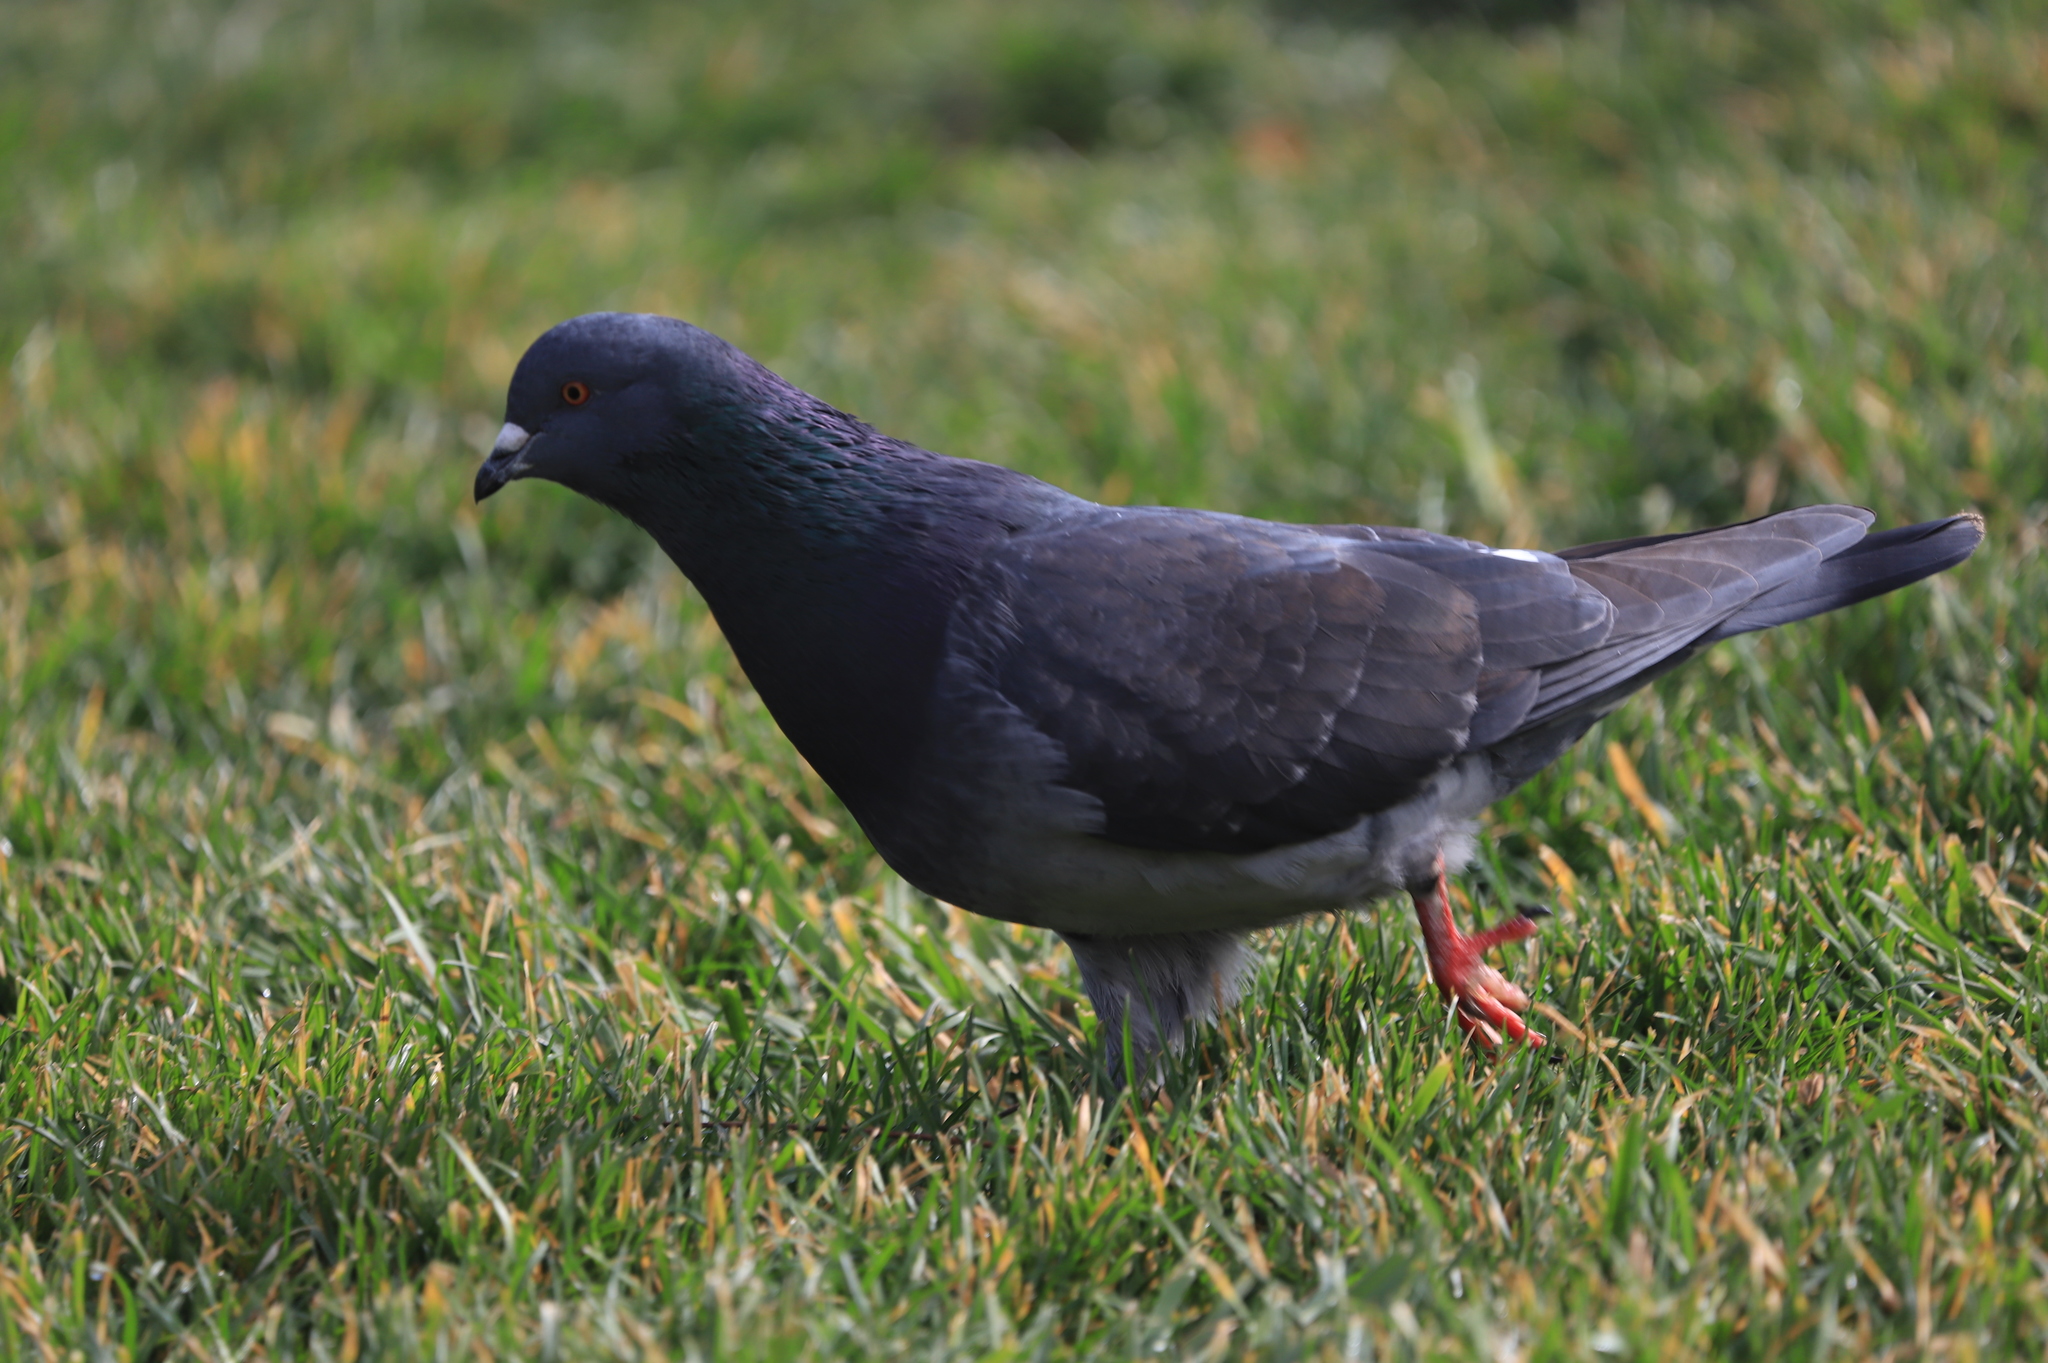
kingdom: Animalia
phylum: Chordata
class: Aves
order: Columbiformes
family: Columbidae
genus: Columba
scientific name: Columba livia
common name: Rock pigeon
